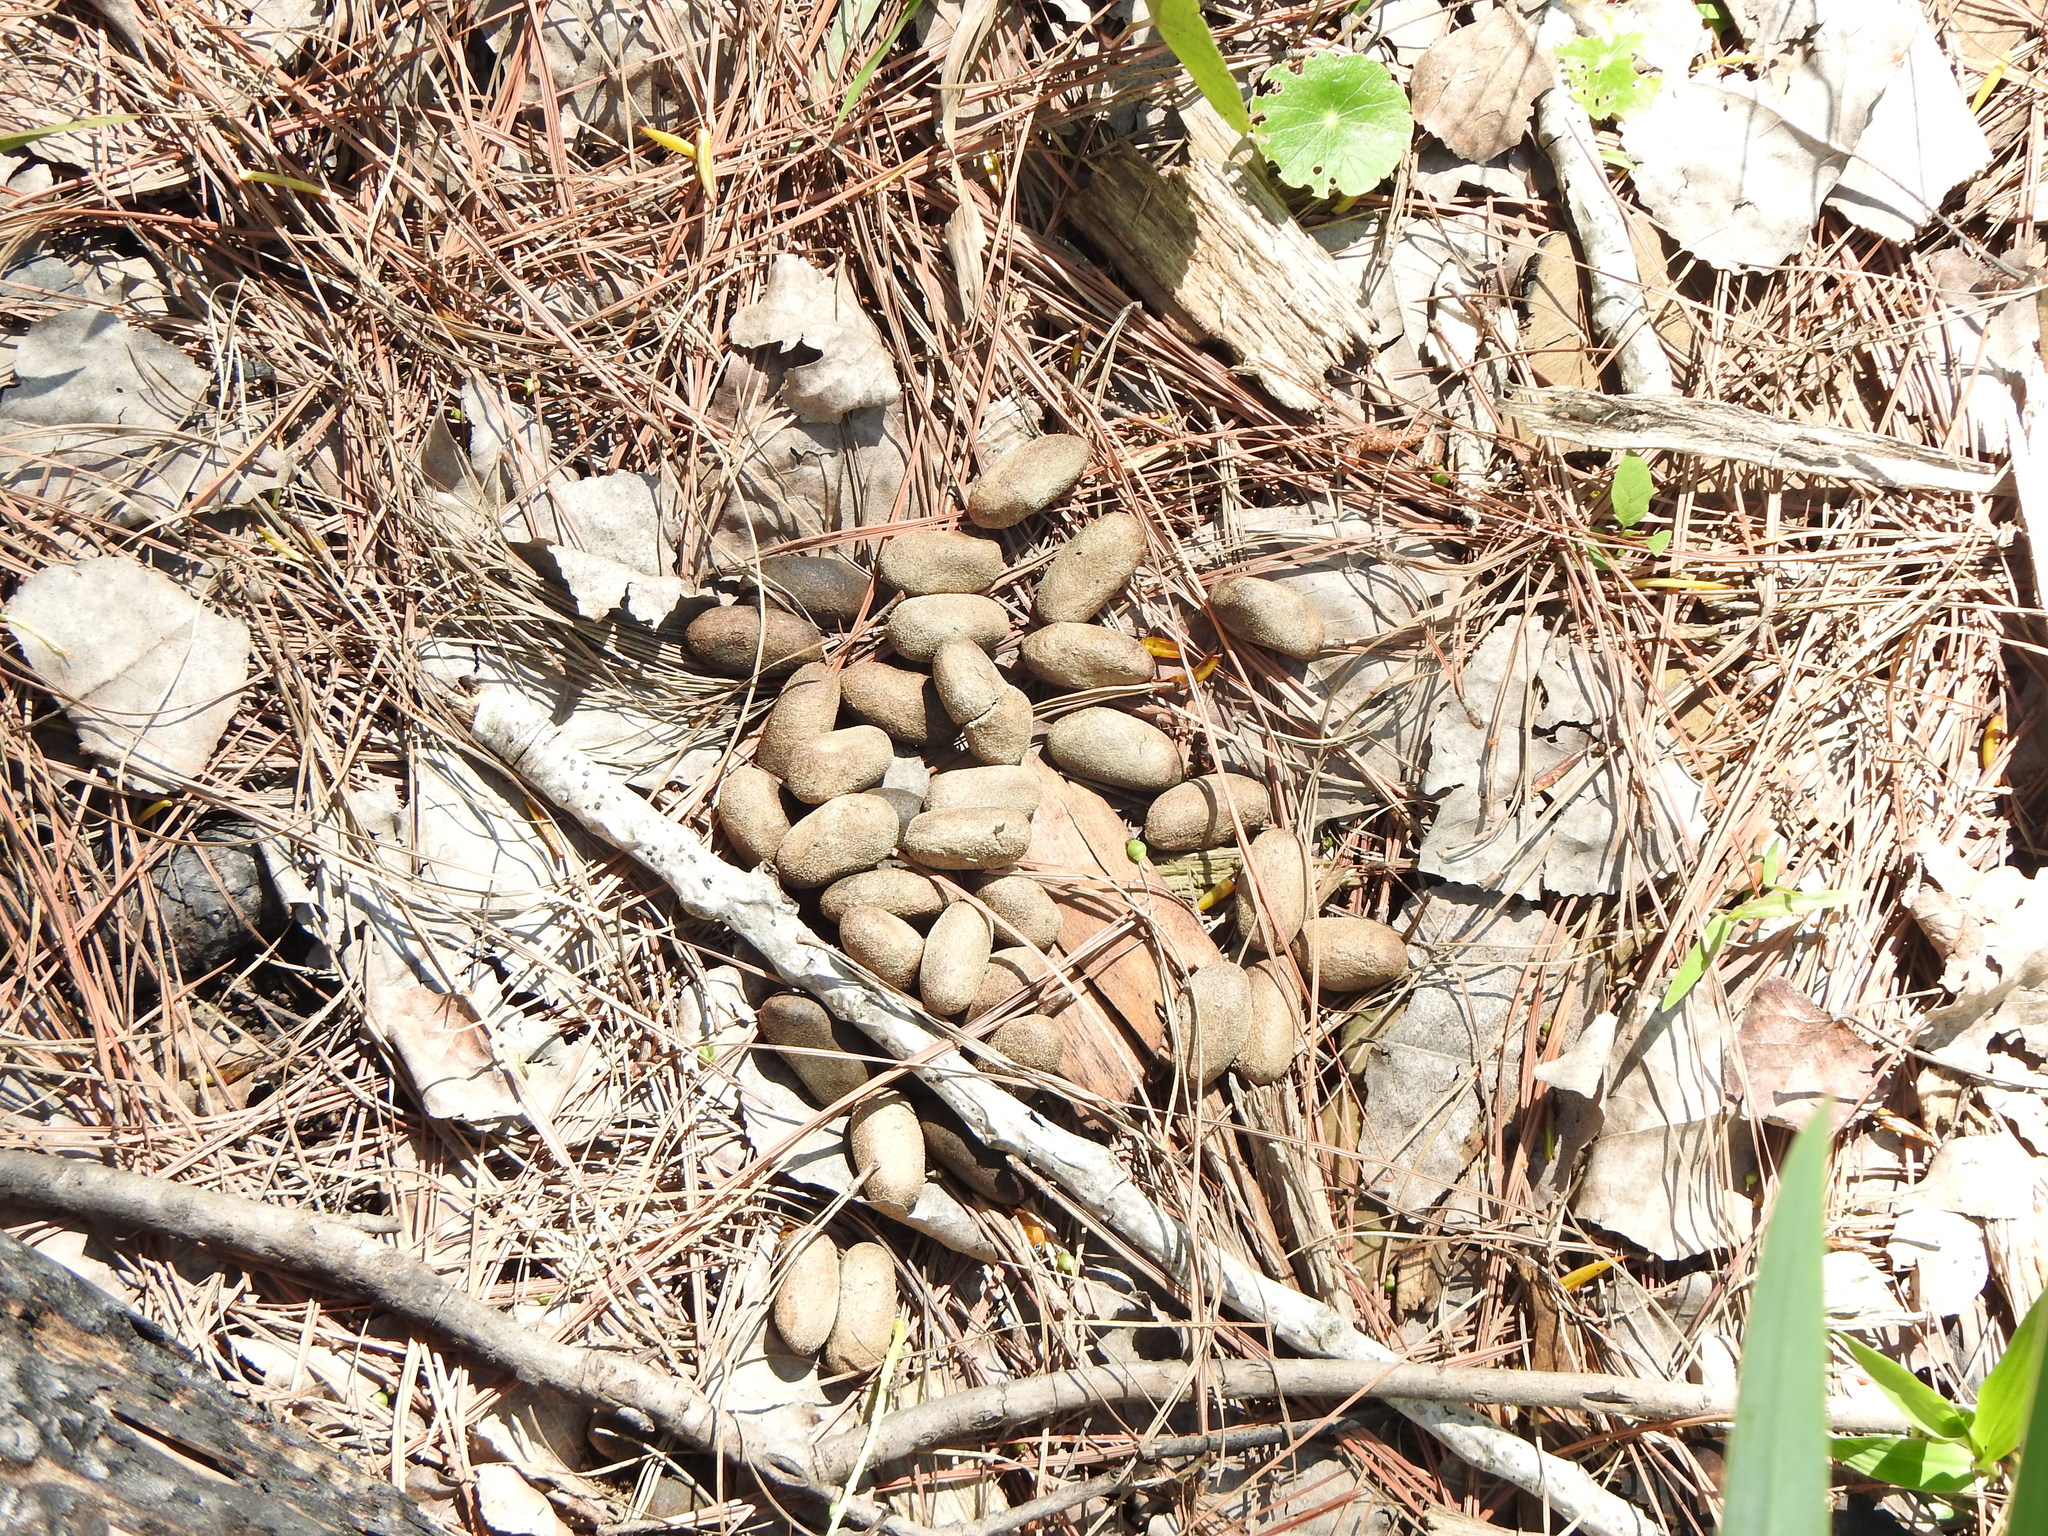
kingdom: Animalia
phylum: Chordata
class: Mammalia
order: Rodentia
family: Caviidae
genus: Hydrochoerus
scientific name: Hydrochoerus hydrochaeris
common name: Capybara
